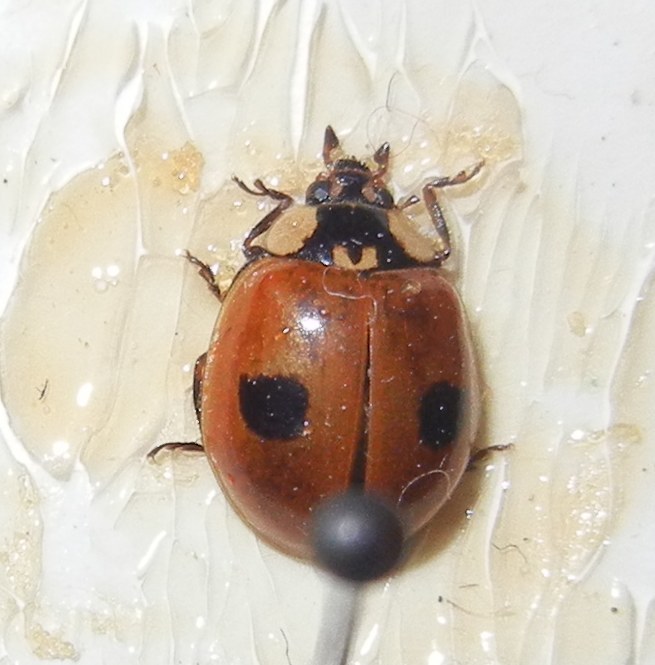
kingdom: Animalia
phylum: Arthropoda
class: Insecta
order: Coleoptera
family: Coccinellidae
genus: Adalia
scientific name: Adalia bipunctata
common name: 2-spot ladybird
